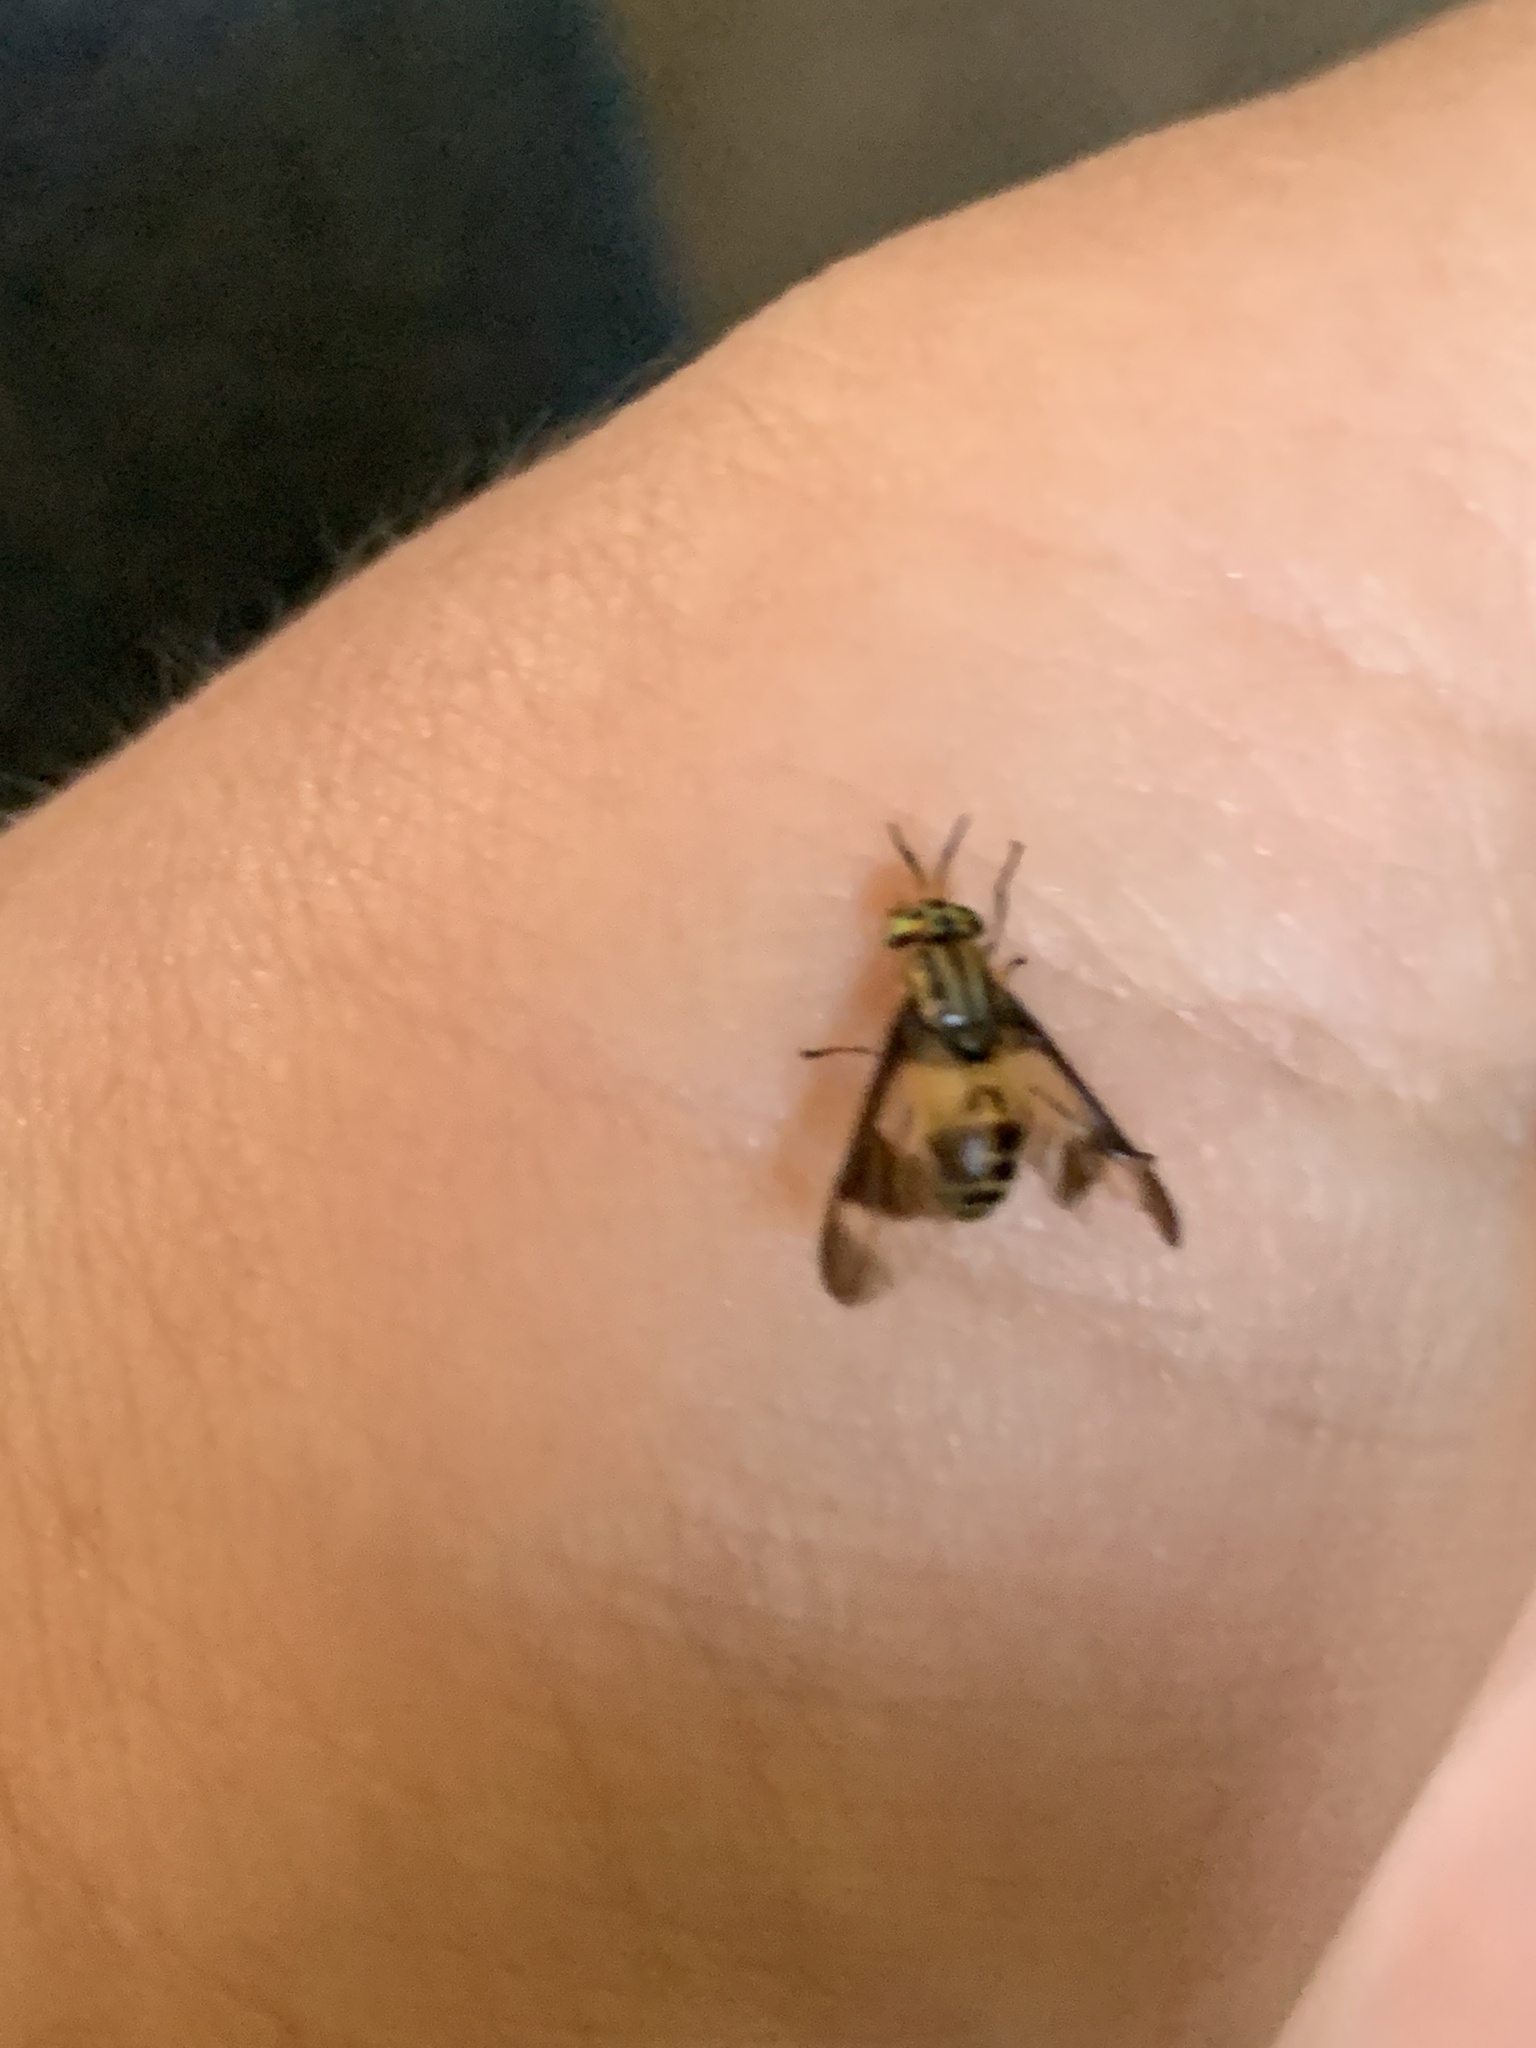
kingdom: Animalia
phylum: Arthropoda
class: Insecta
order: Diptera
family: Tabanidae
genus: Chrysops
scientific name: Chrysops geminatus
